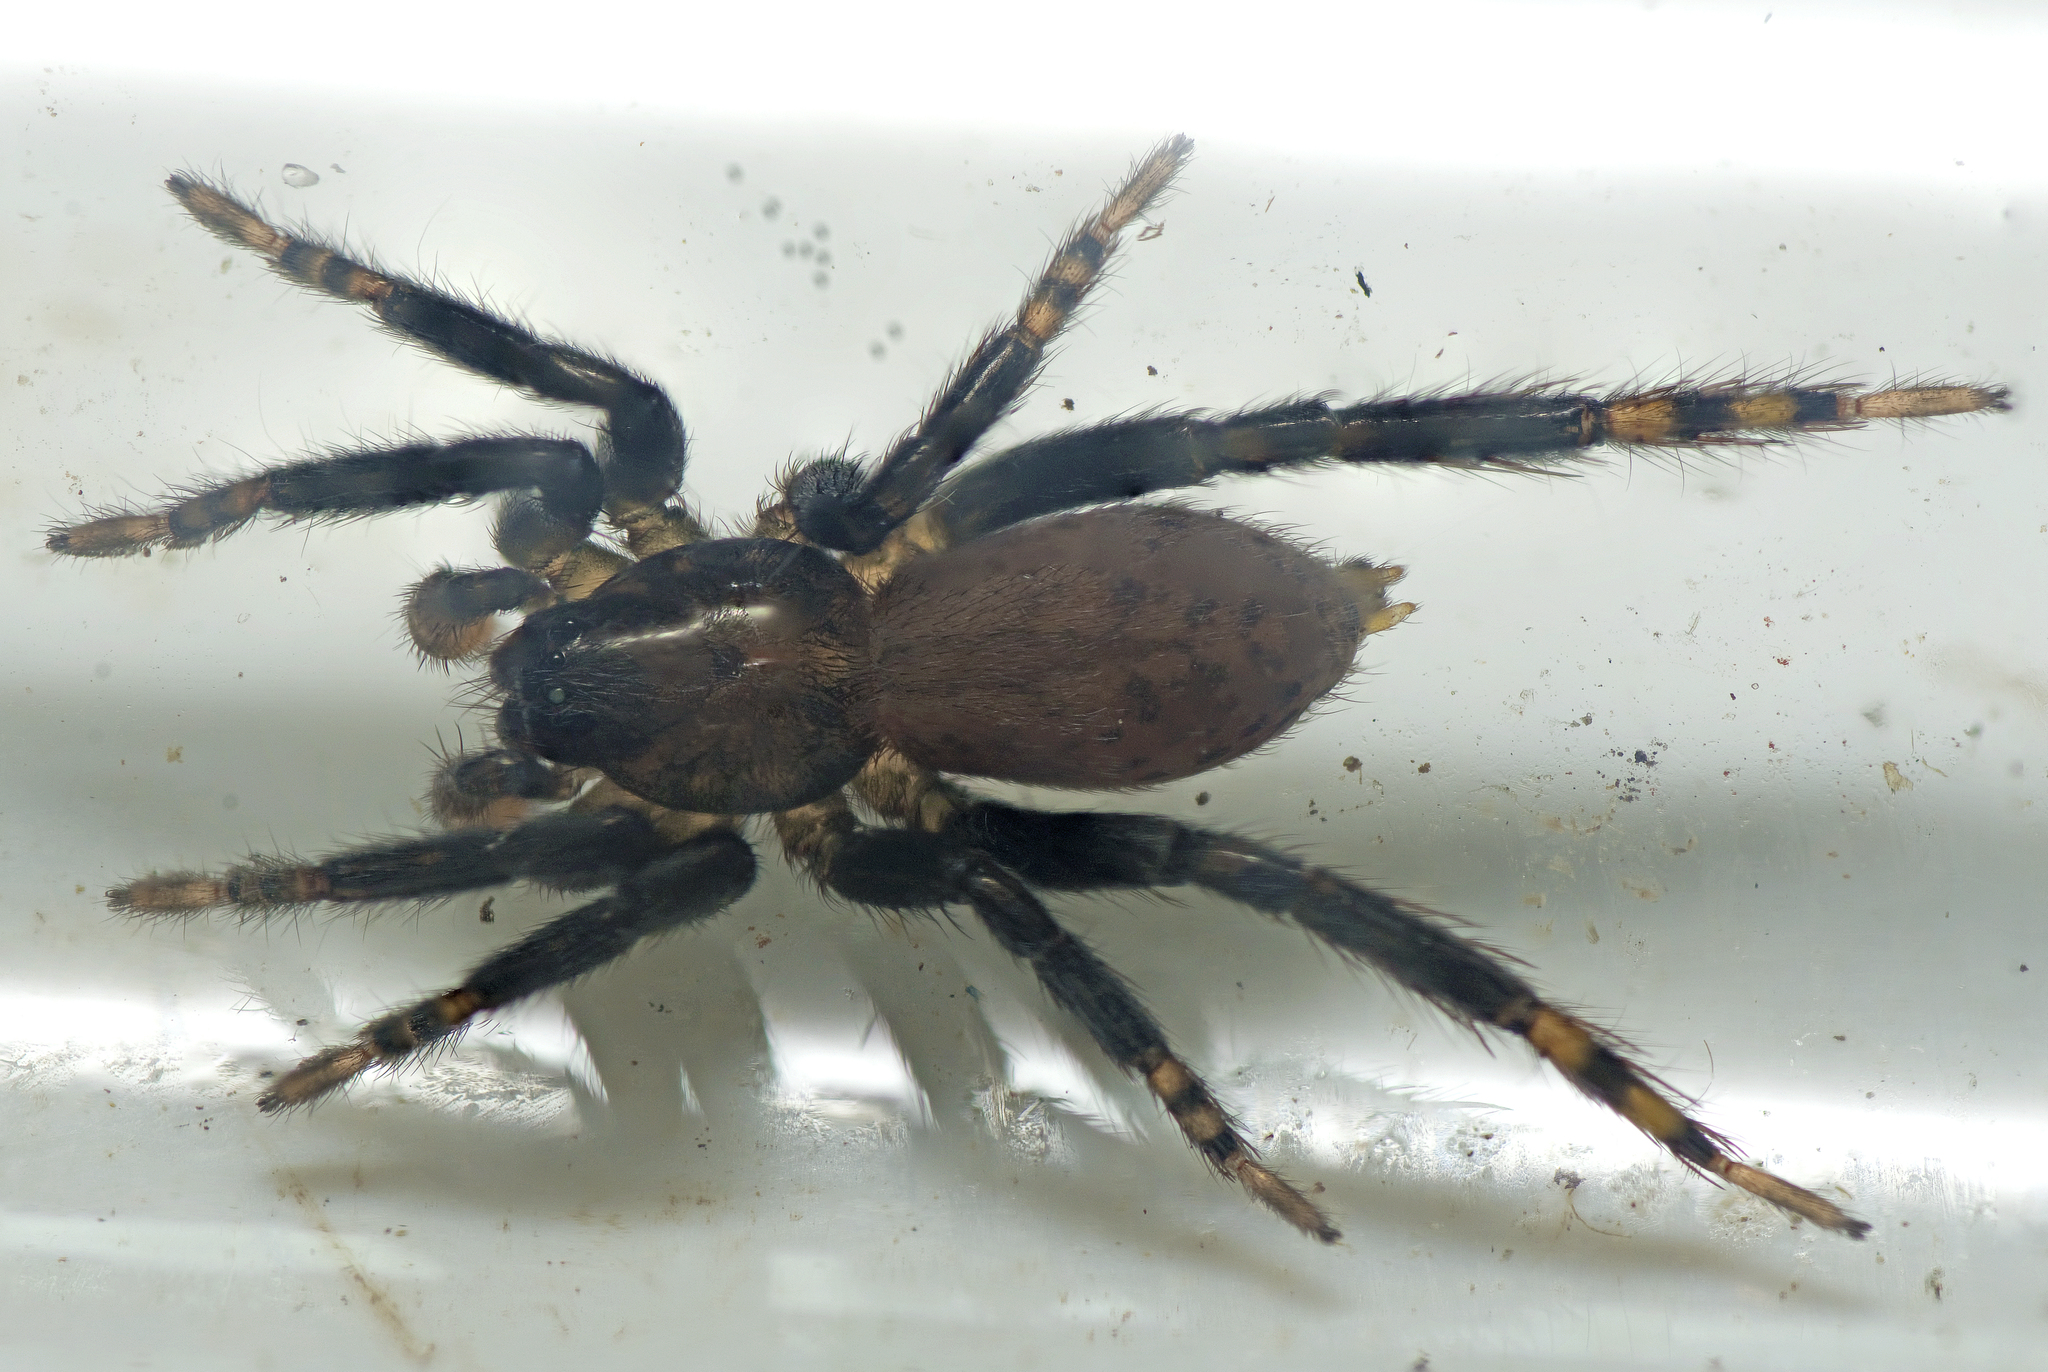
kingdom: Animalia
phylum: Arthropoda
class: Arachnida
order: Araneae
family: Miturgidae
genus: Nuliodon
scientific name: Nuliodon fishburni
